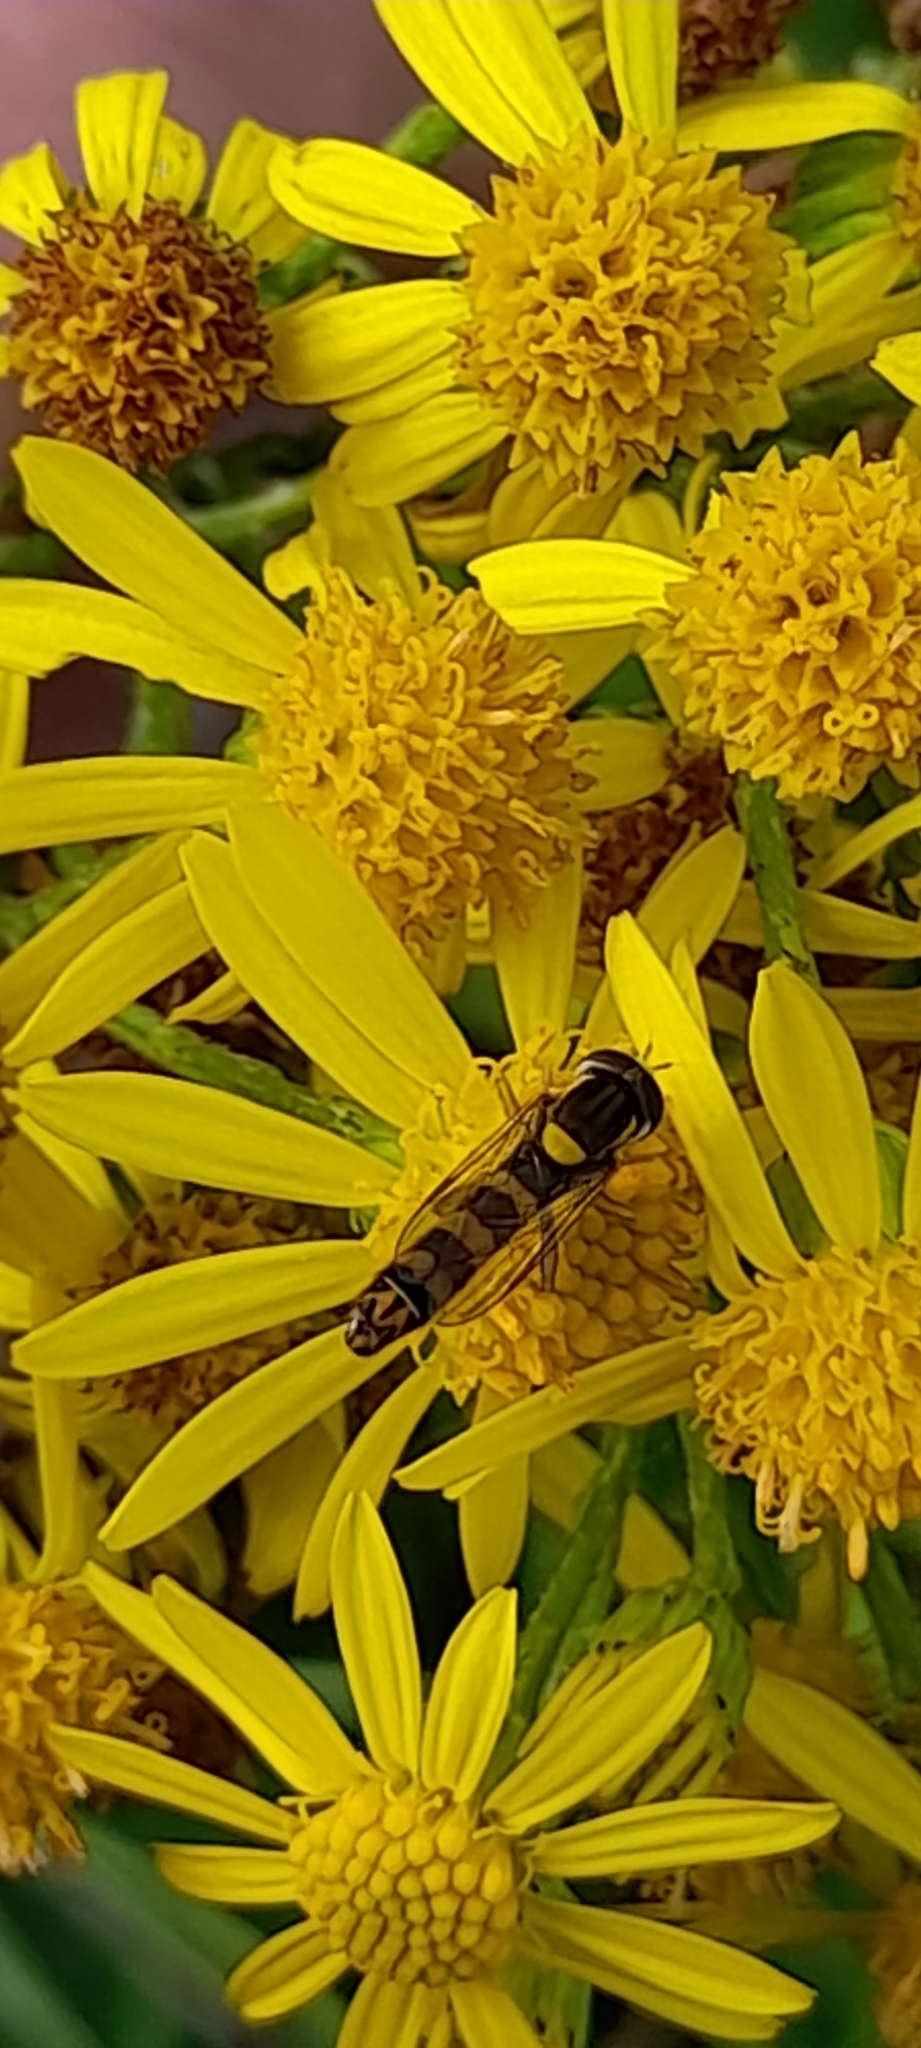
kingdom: Animalia
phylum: Arthropoda
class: Insecta
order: Diptera
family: Syrphidae
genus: Sphaerophoria
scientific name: Sphaerophoria scripta
